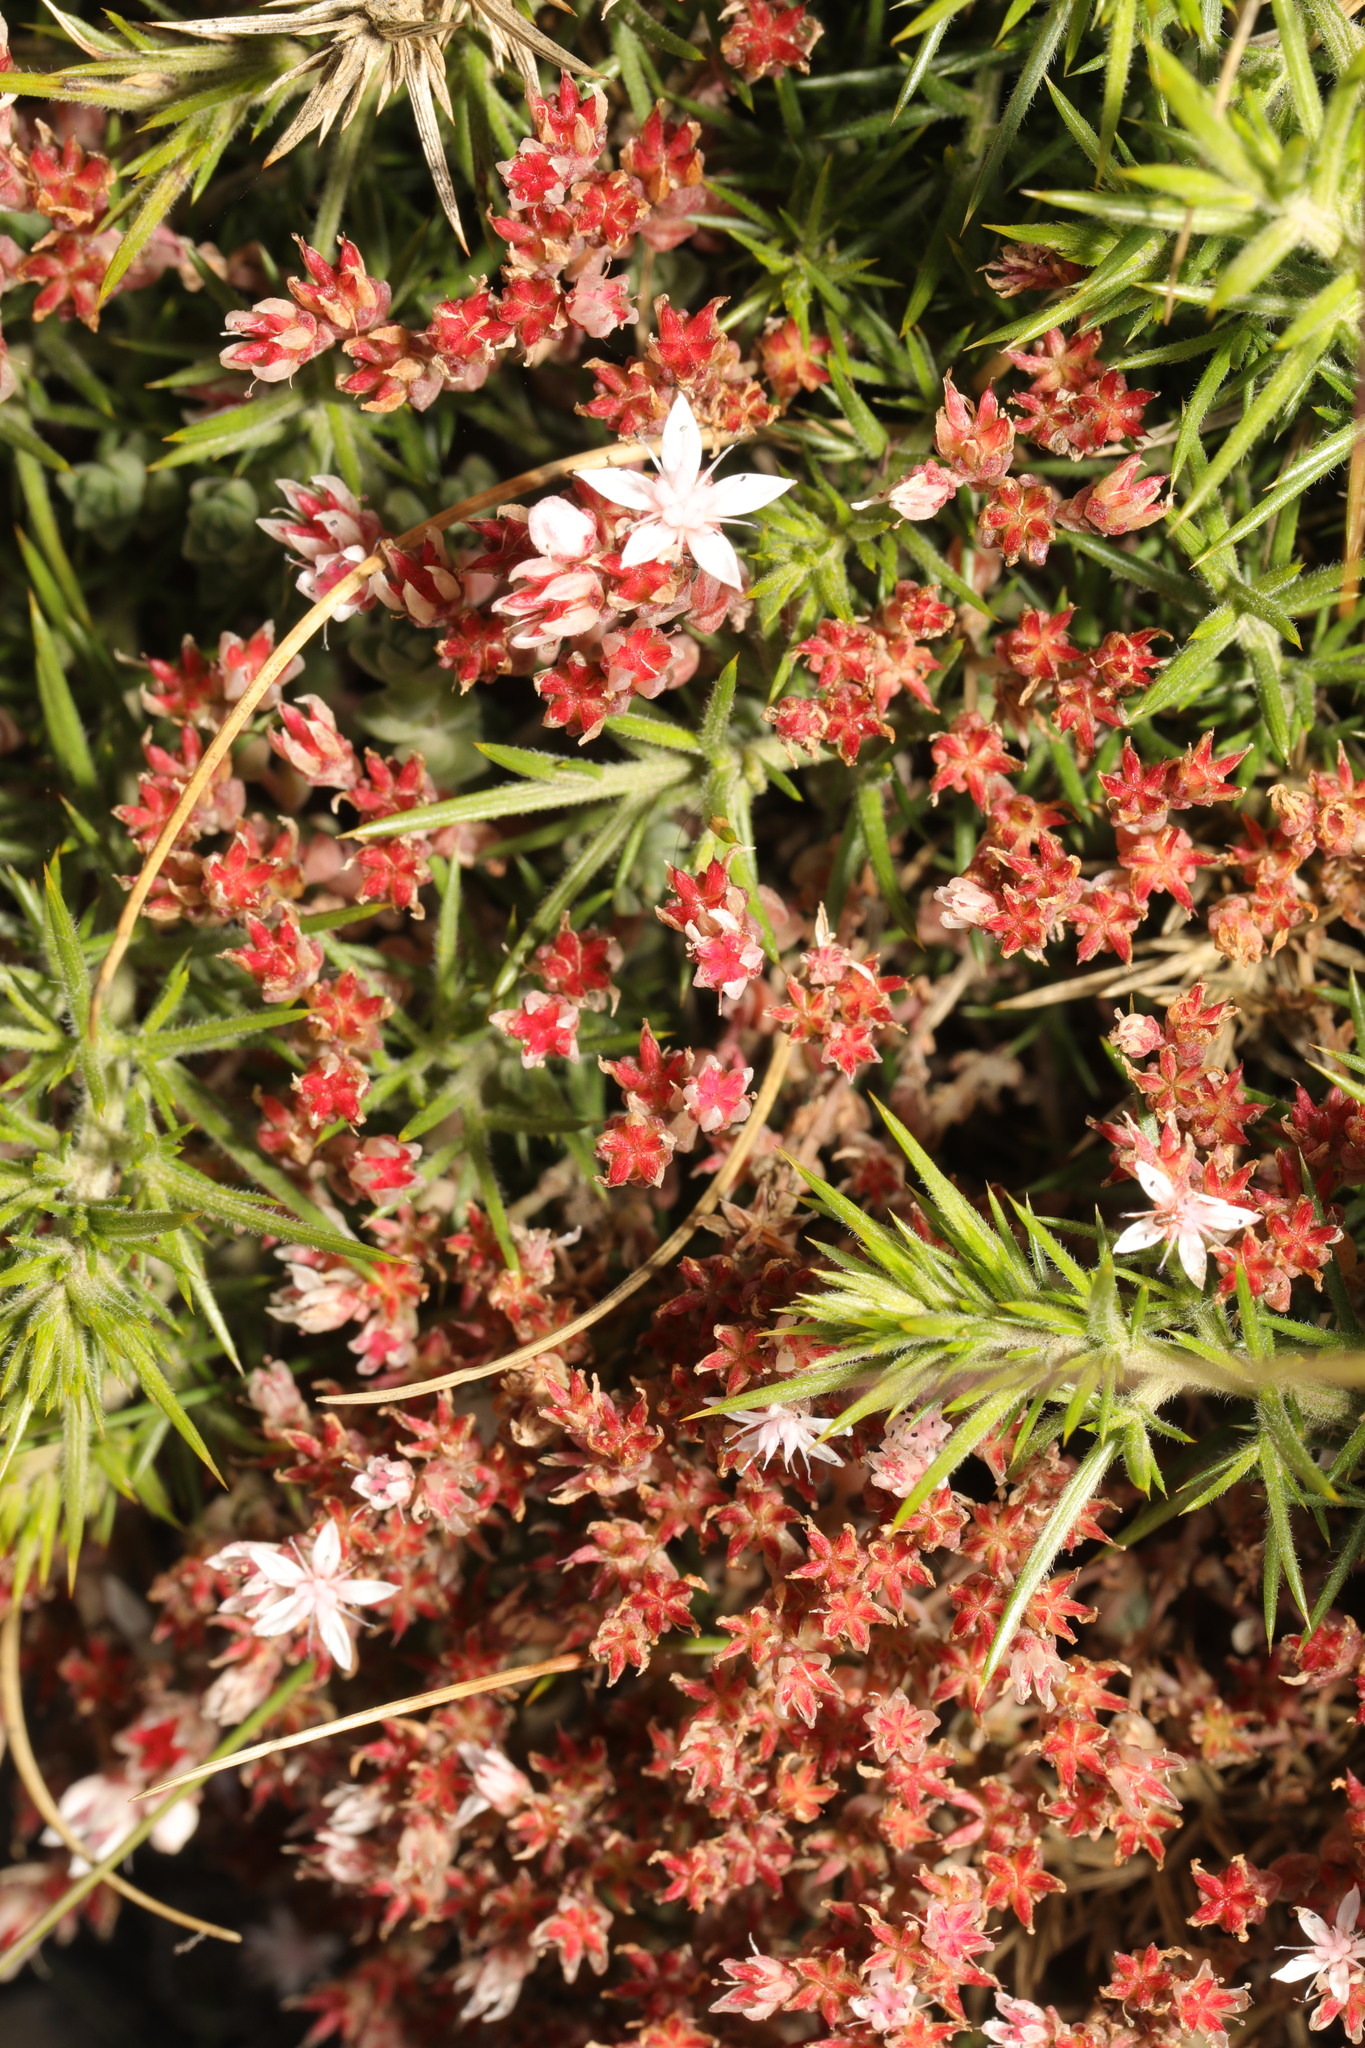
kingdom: Plantae
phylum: Tracheophyta
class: Magnoliopsida
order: Saxifragales
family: Crassulaceae
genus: Sedum
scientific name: Sedum anglicum
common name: English stonecrop
